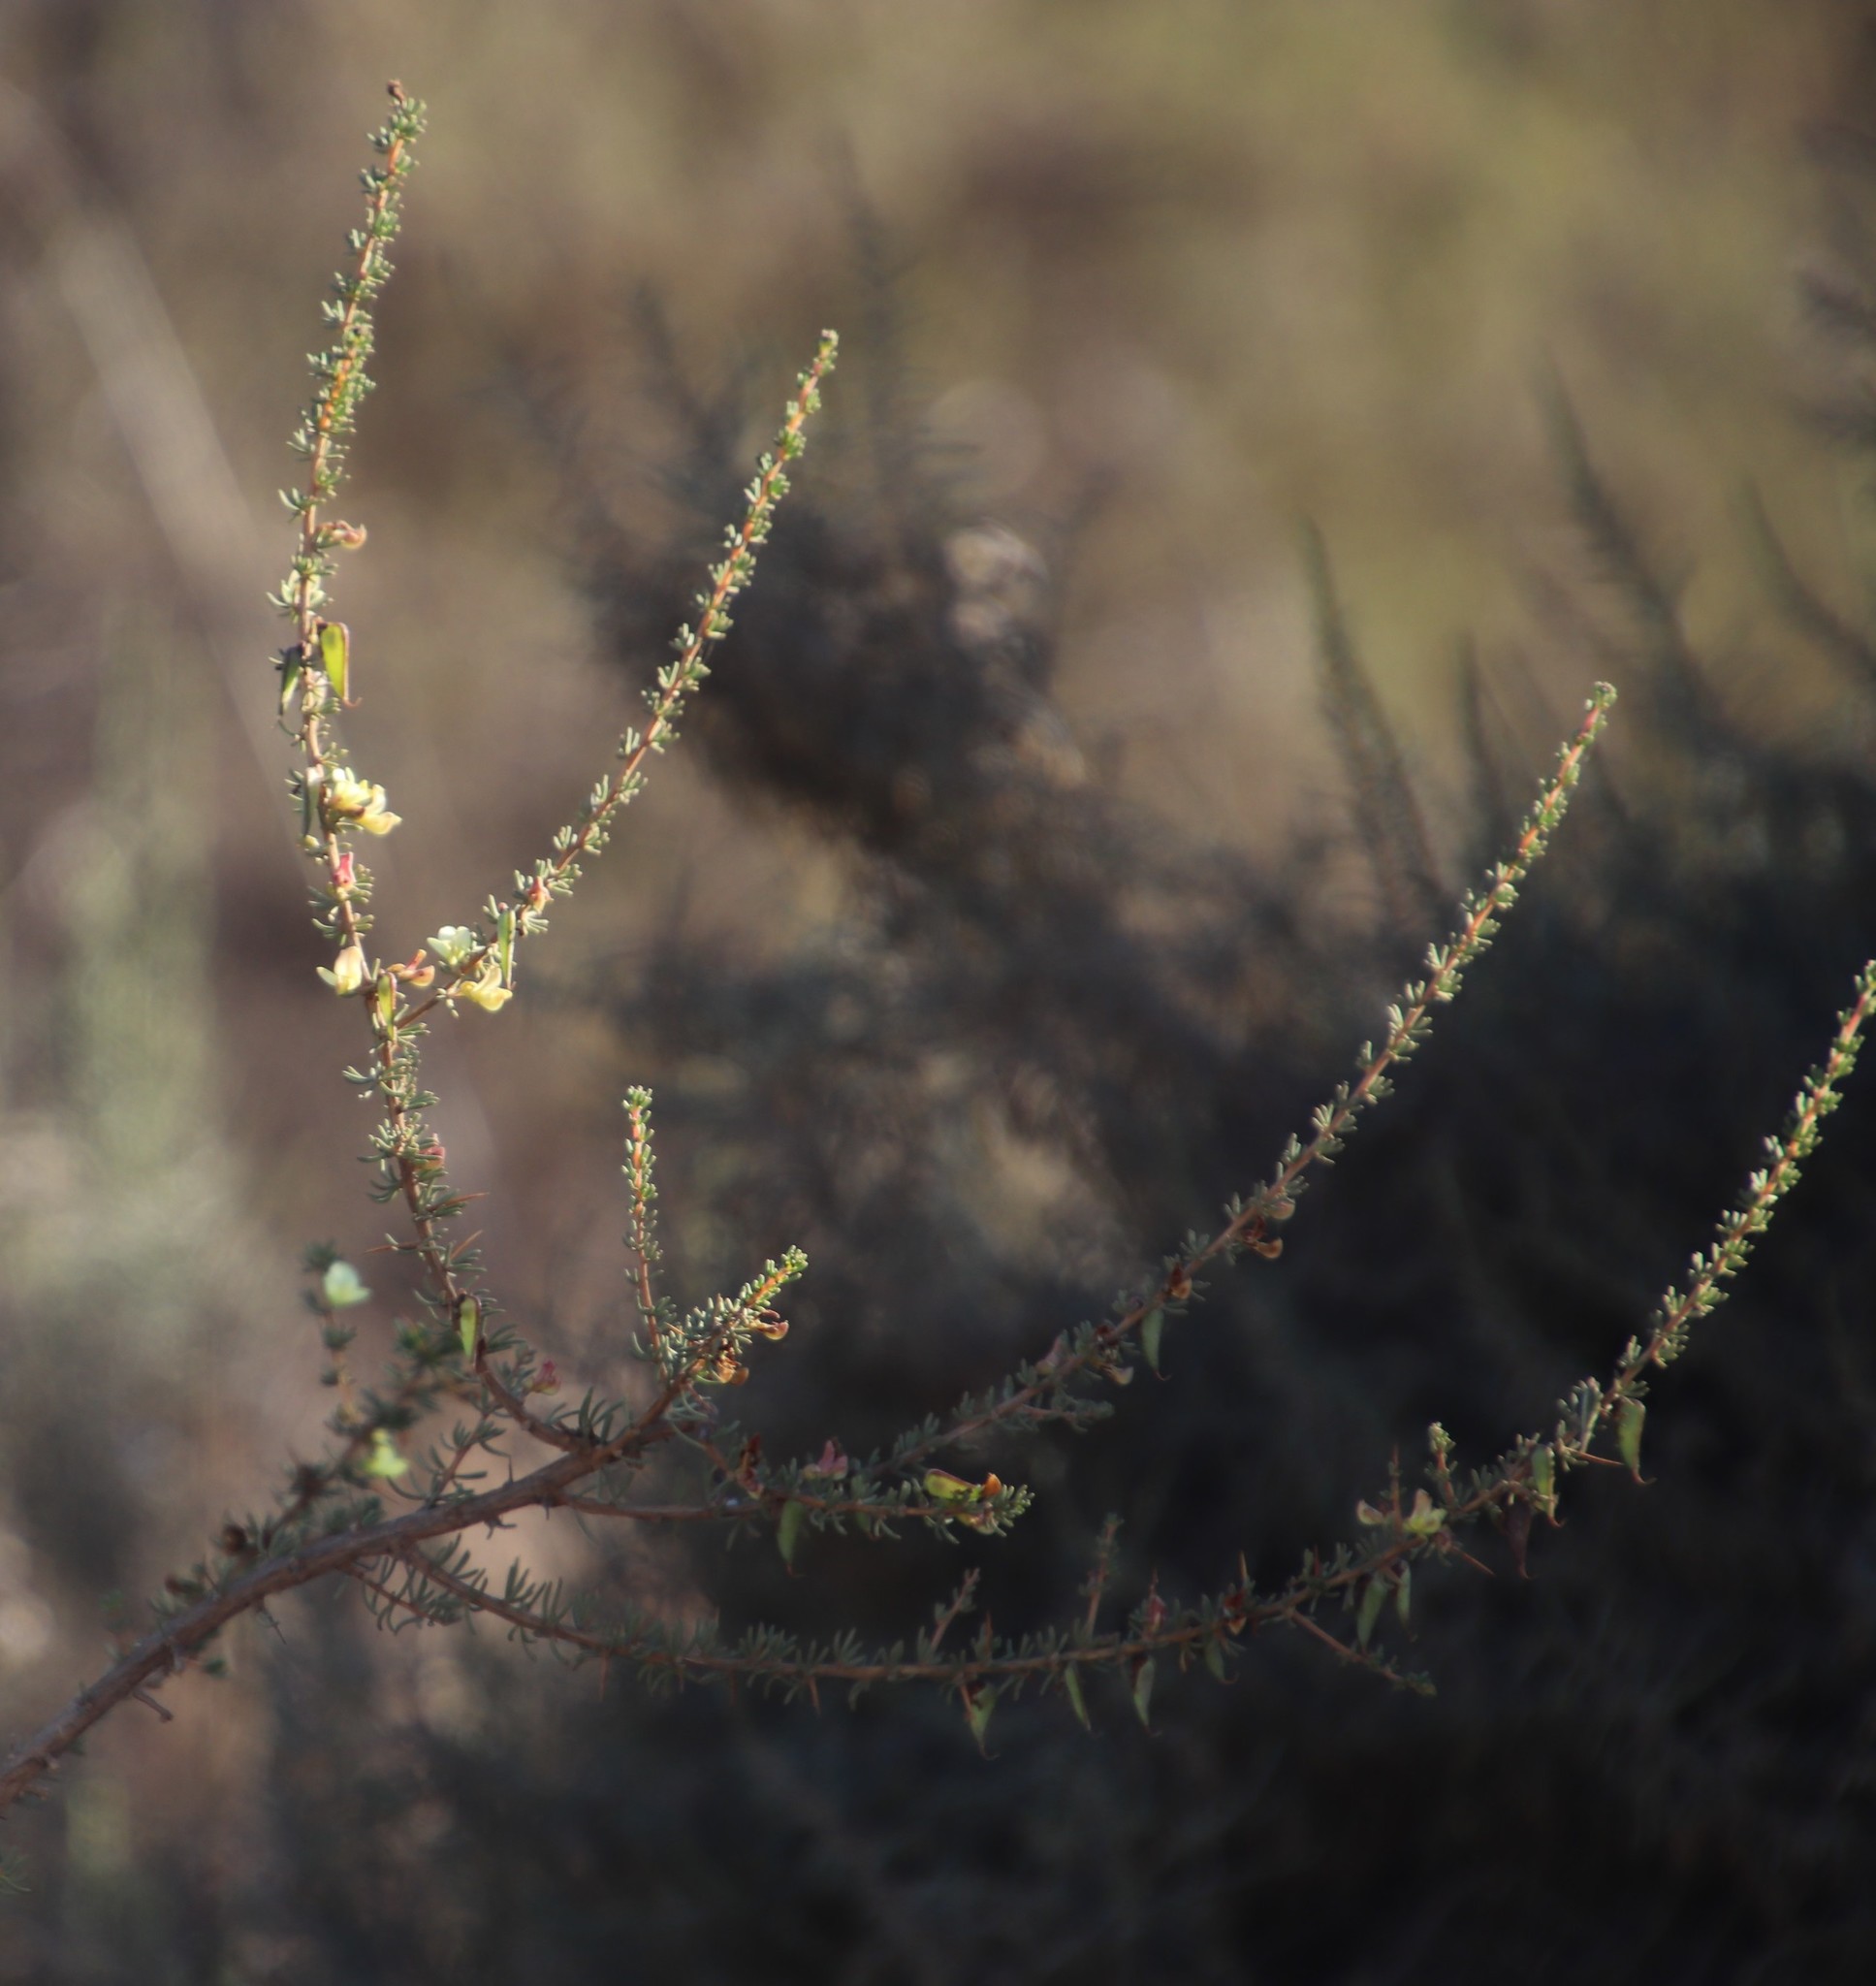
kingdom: Plantae
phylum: Tracheophyta
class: Magnoliopsida
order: Fabales
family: Fabaceae
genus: Aspalathus
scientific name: Aspalathus spinosa
